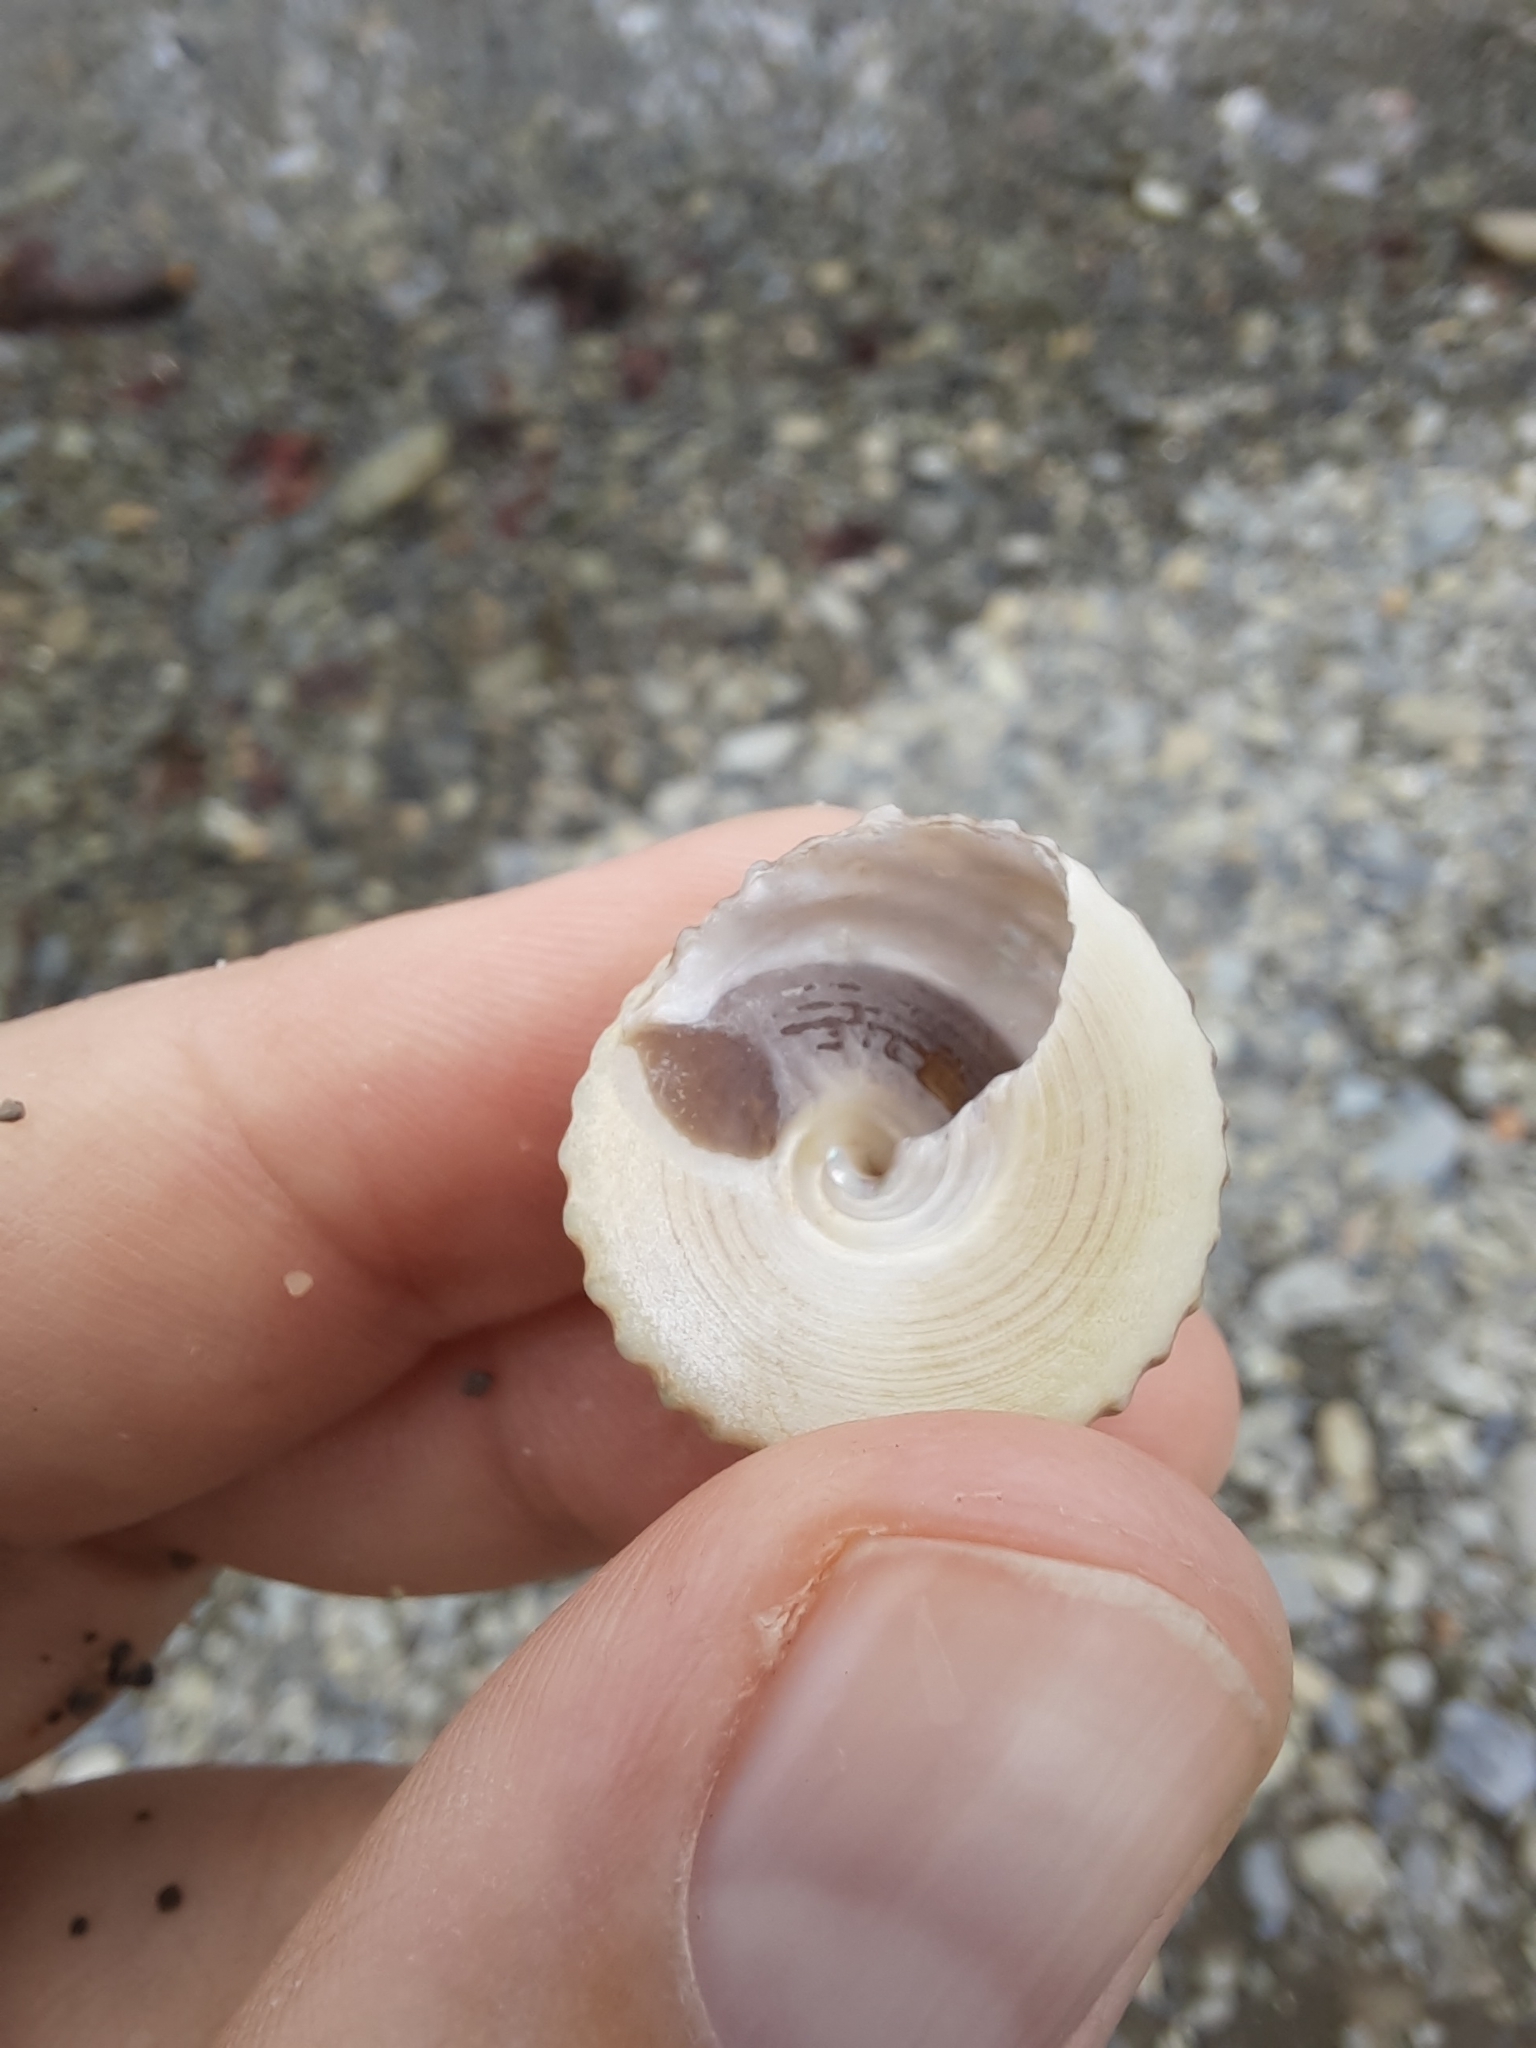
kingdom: Animalia
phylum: Mollusca
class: Gastropoda
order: Trochida
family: Trochidae
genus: Coelotrochus
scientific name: Coelotrochus viridis
